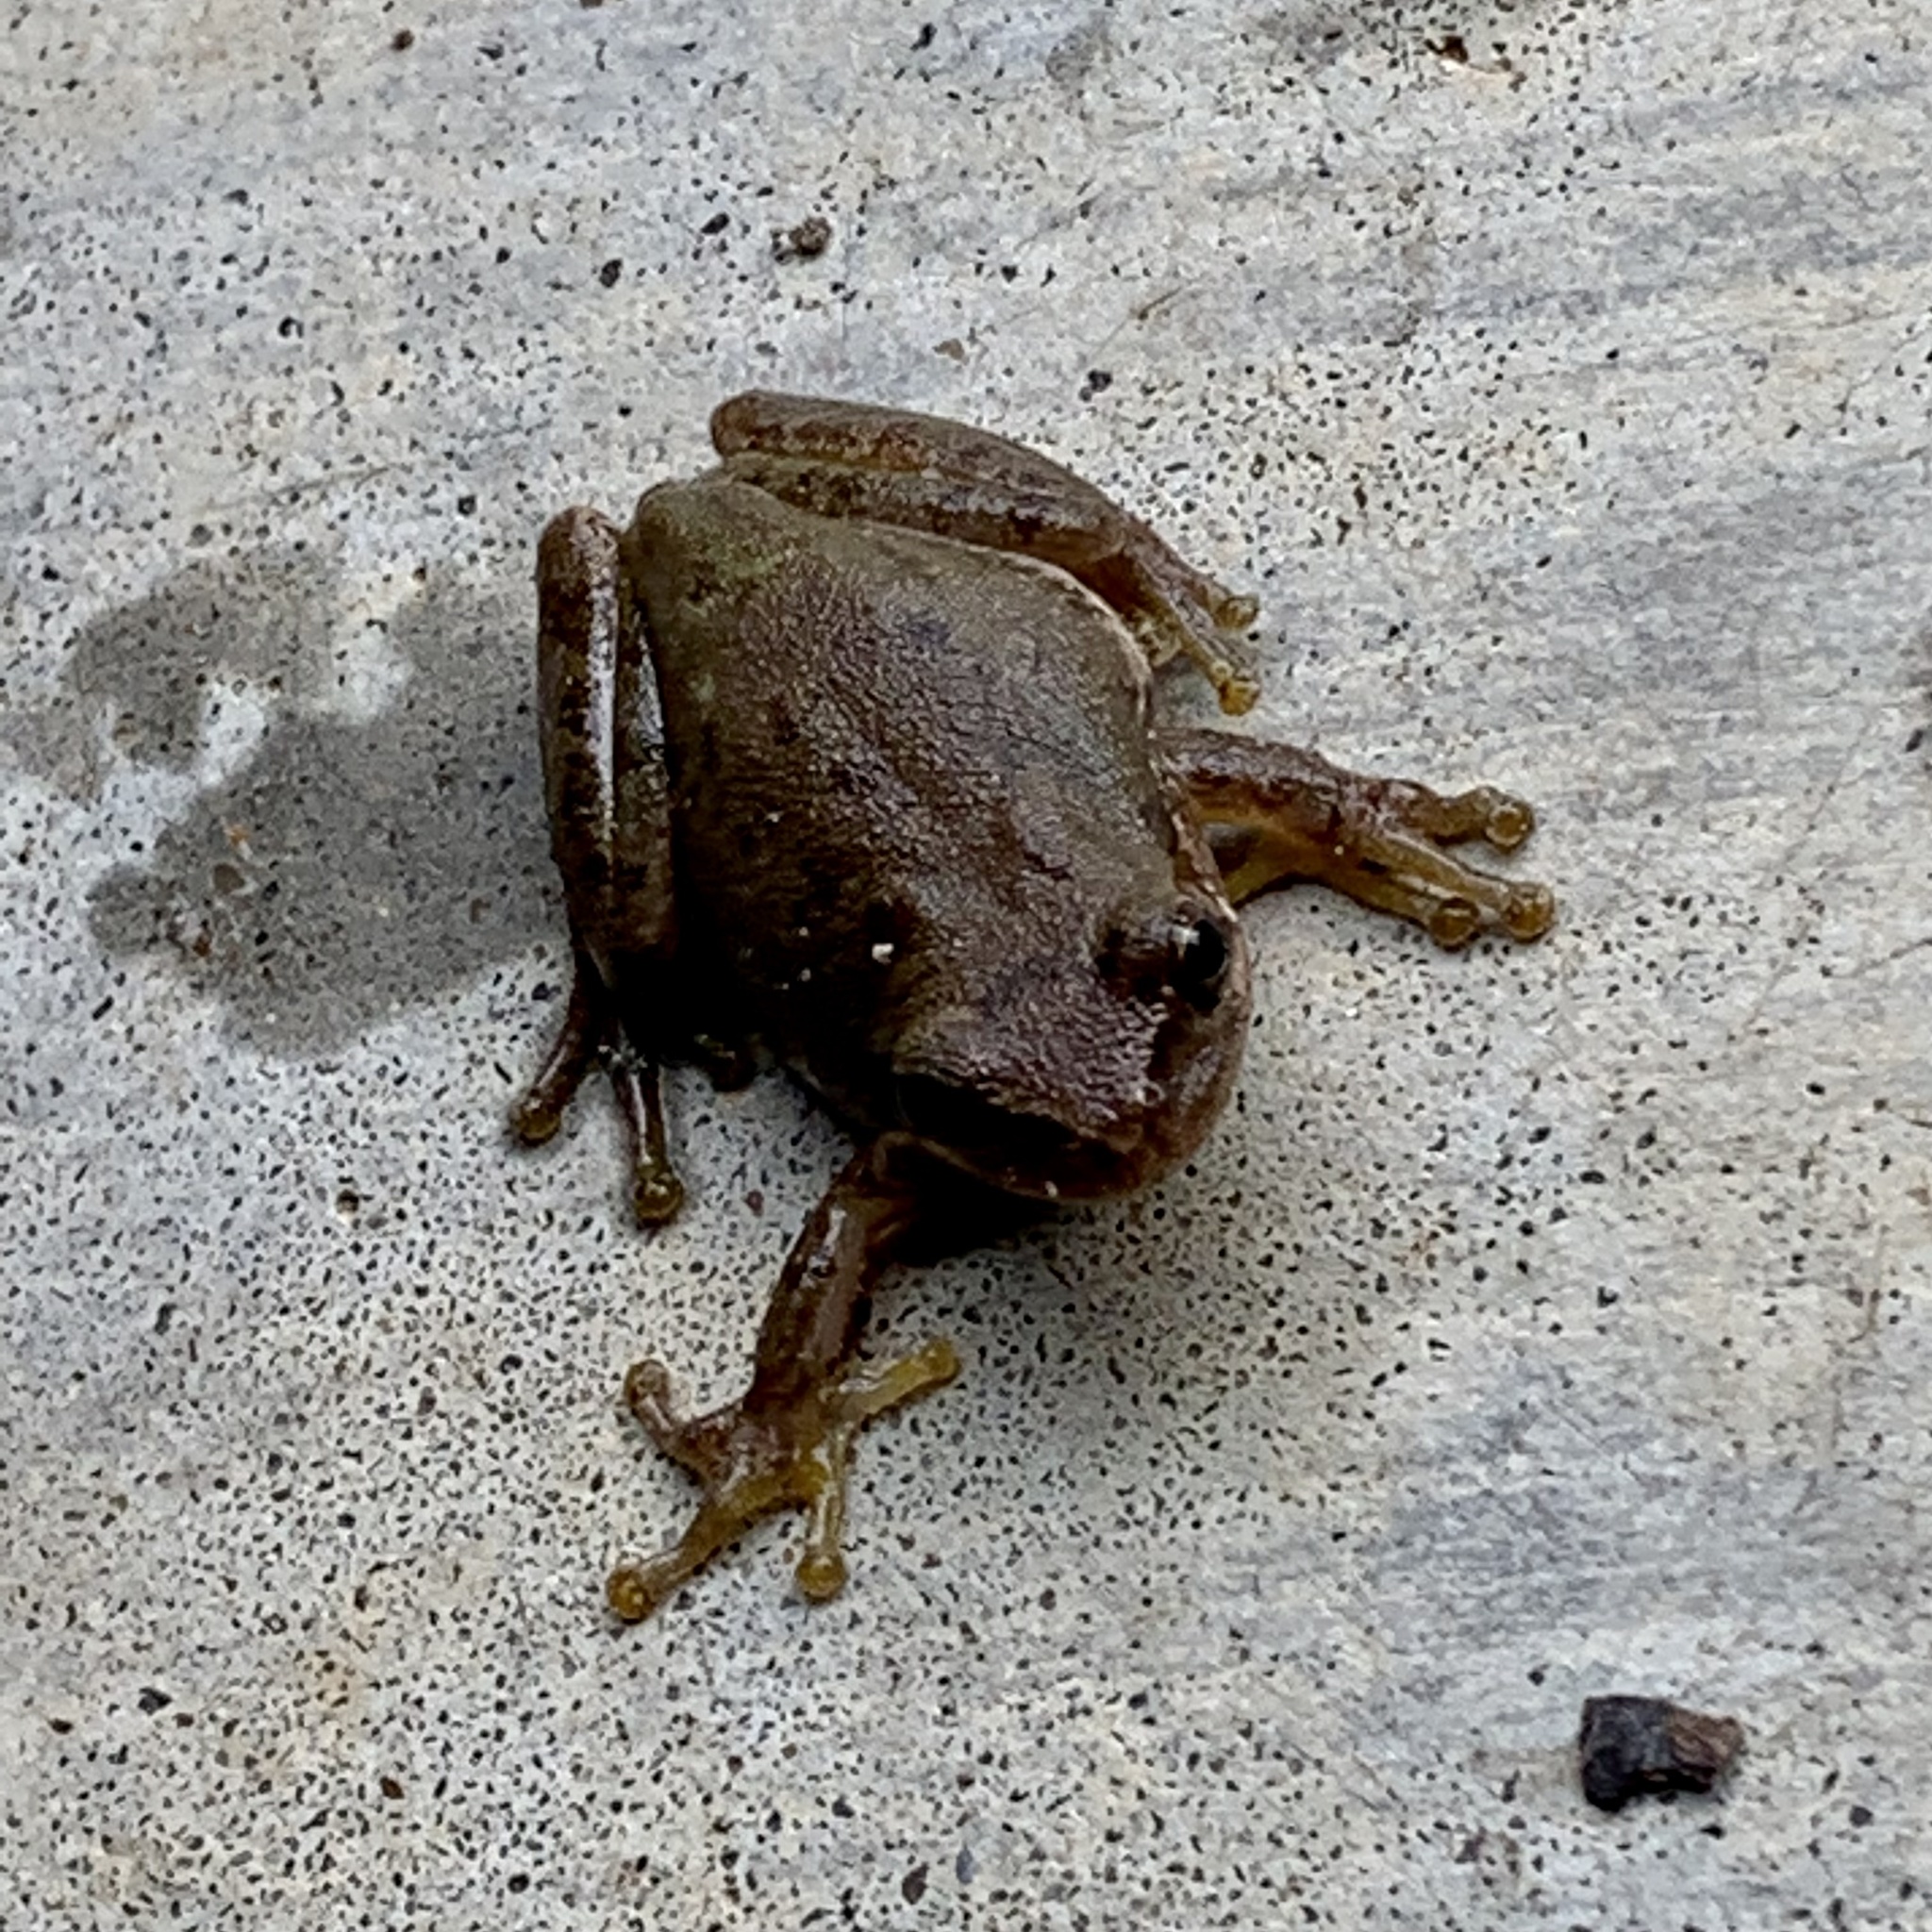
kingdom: Animalia
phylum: Chordata
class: Amphibia
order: Anura
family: Hylidae
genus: Dryophytes
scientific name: Dryophytes squirellus
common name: Squirrel treefrog
